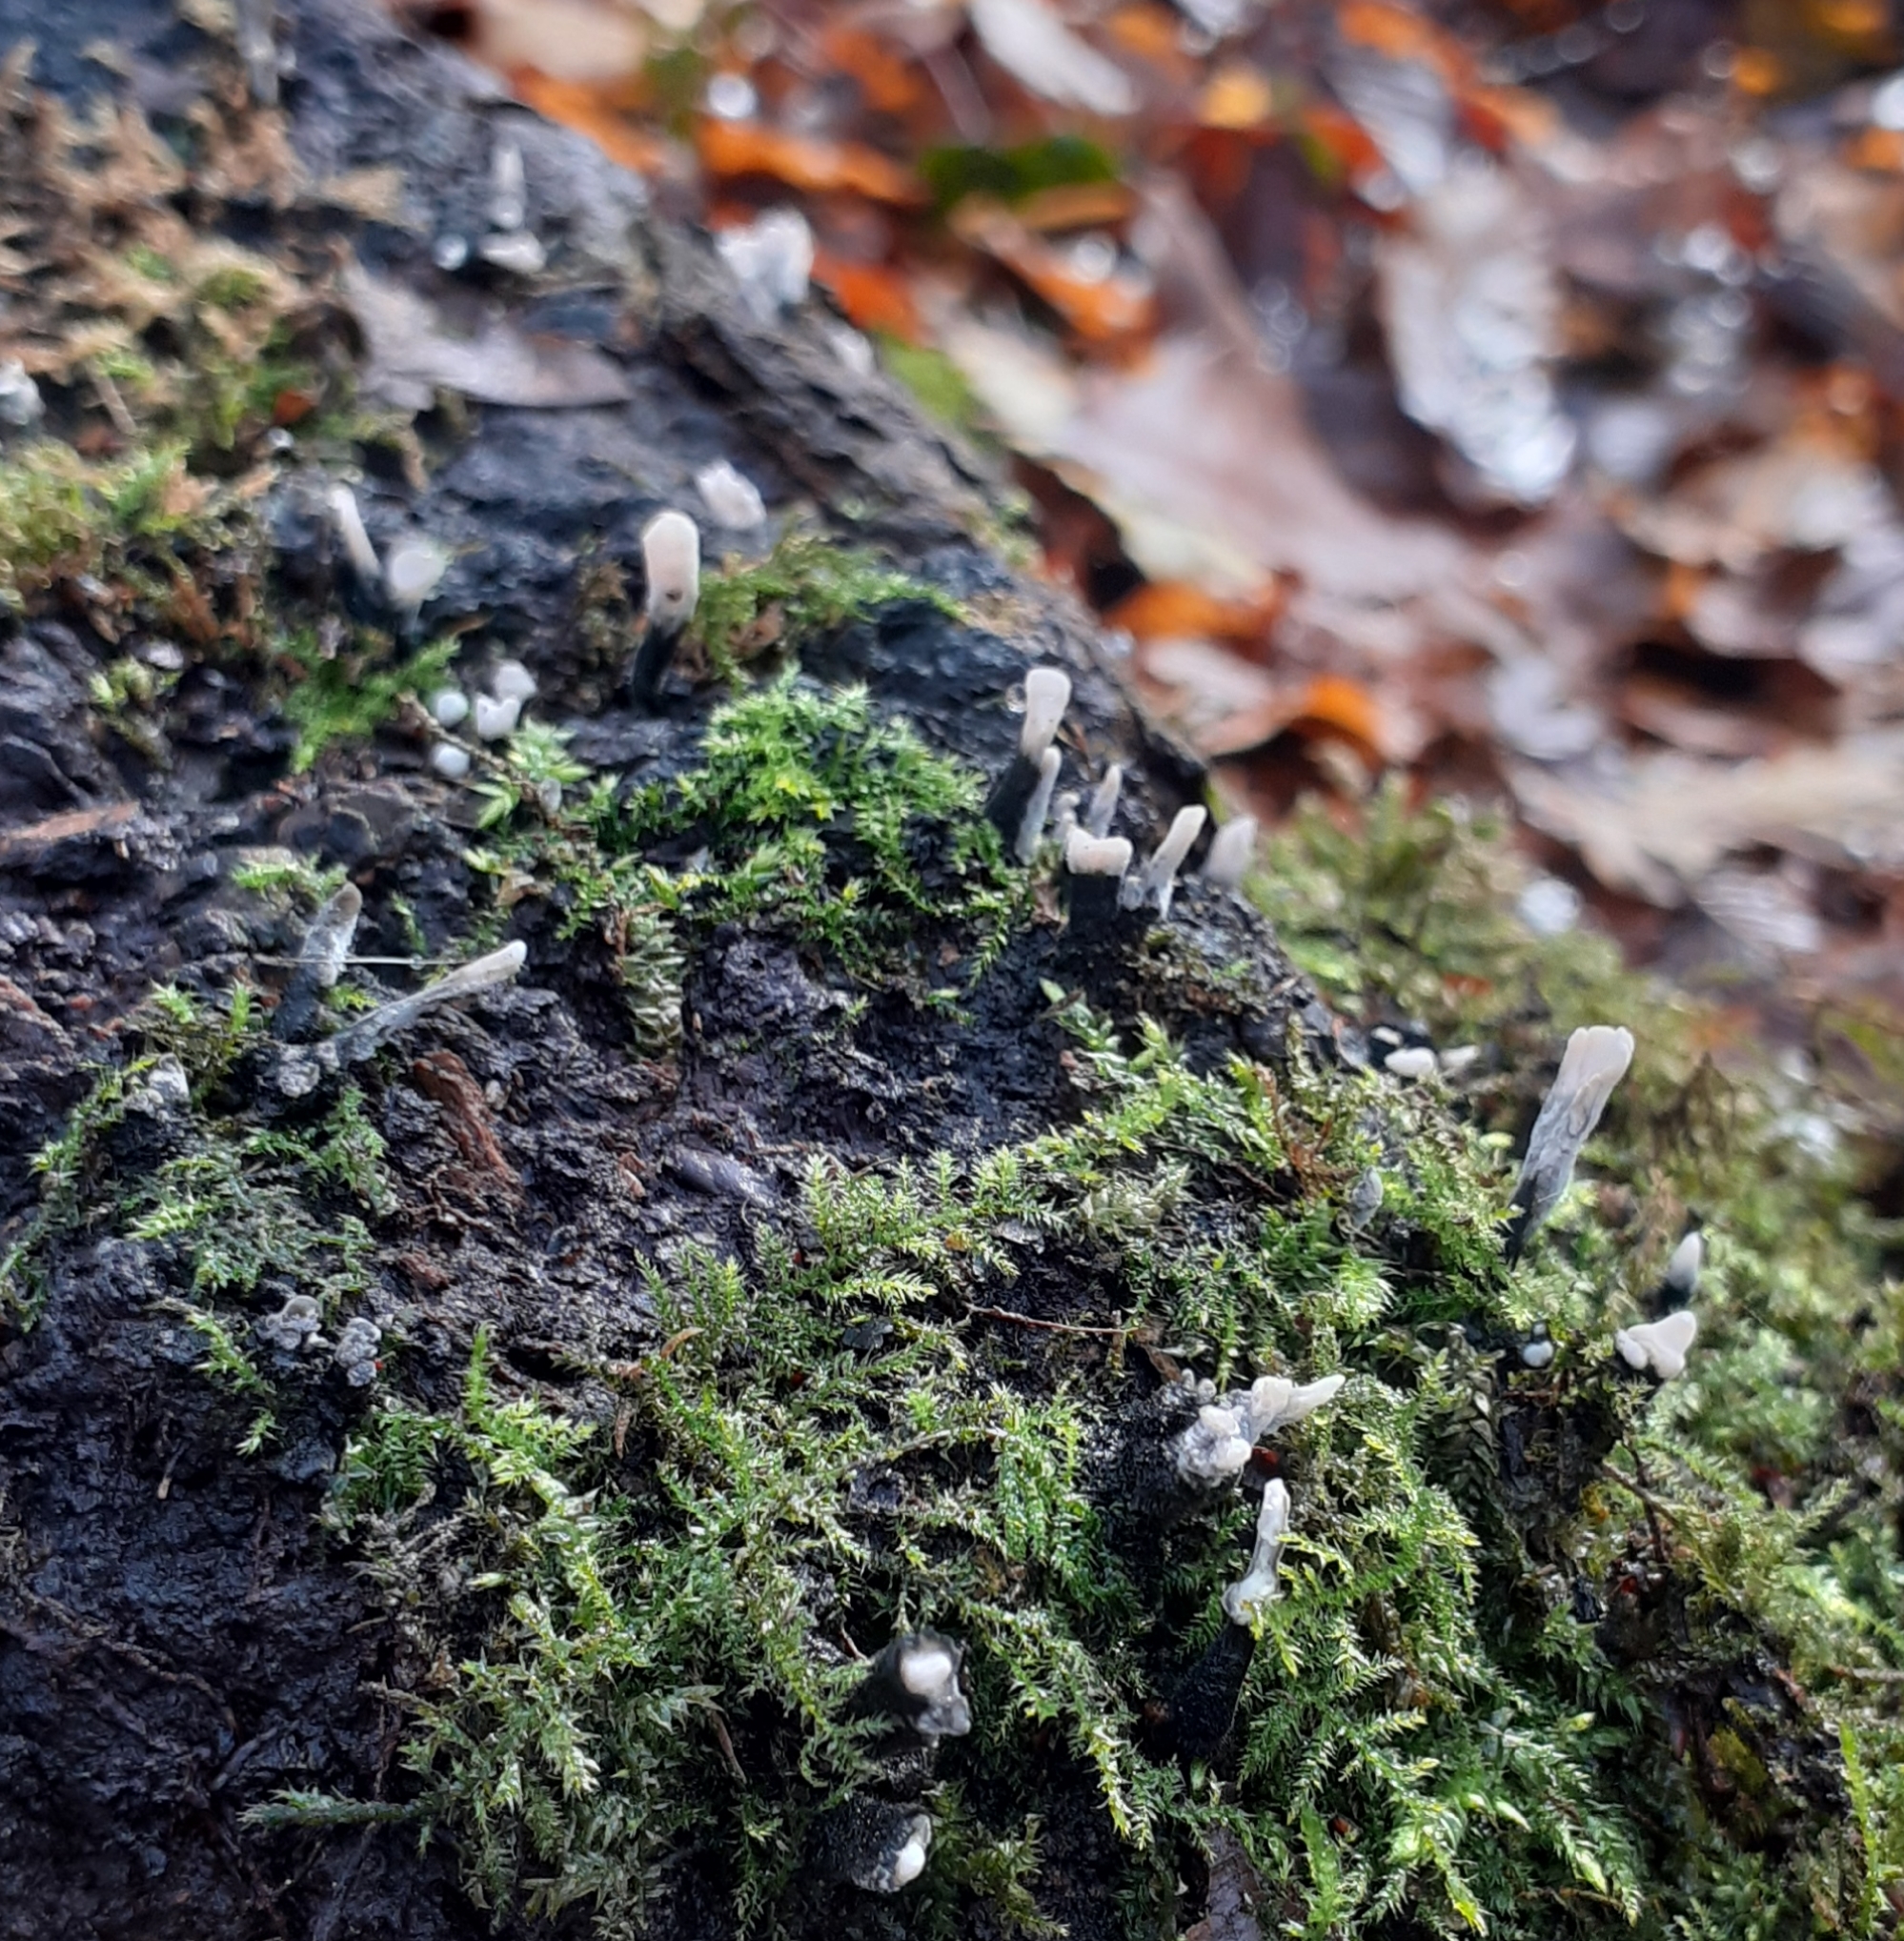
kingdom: Fungi
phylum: Ascomycota
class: Sordariomycetes
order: Xylariales
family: Xylariaceae
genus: Xylaria
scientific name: Xylaria hypoxylon
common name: Candle-snuff fungus
